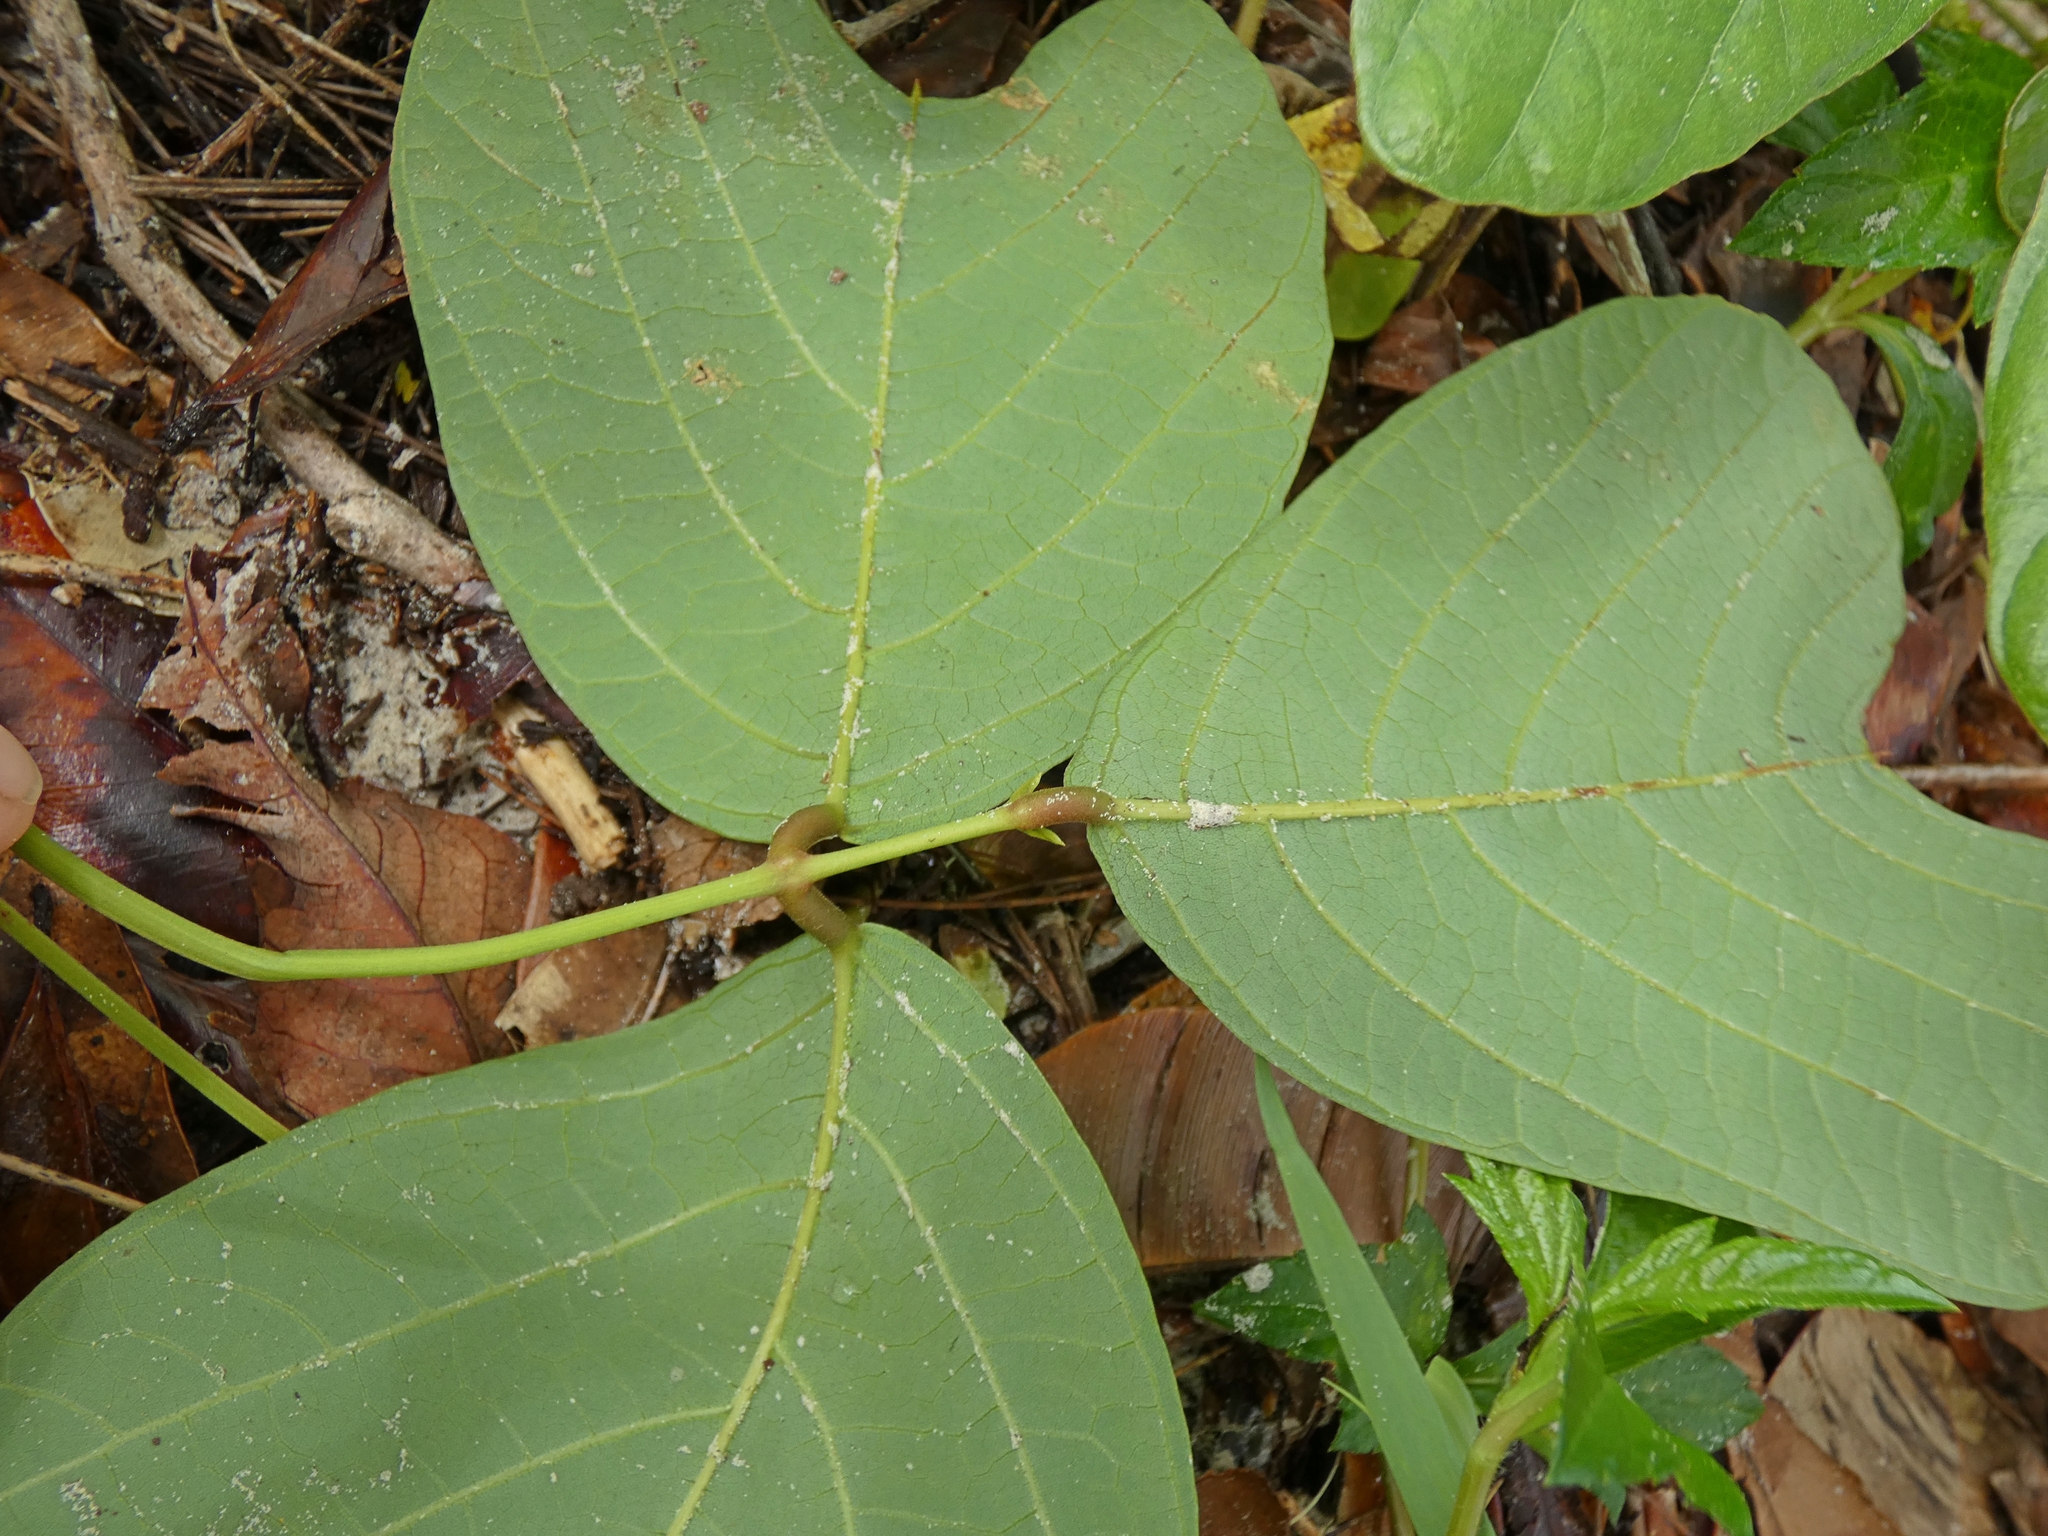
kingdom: Plantae
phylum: Tracheophyta
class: Magnoliopsida
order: Fabales
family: Fabaceae
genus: Vandasina
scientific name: Vandasina retusa
